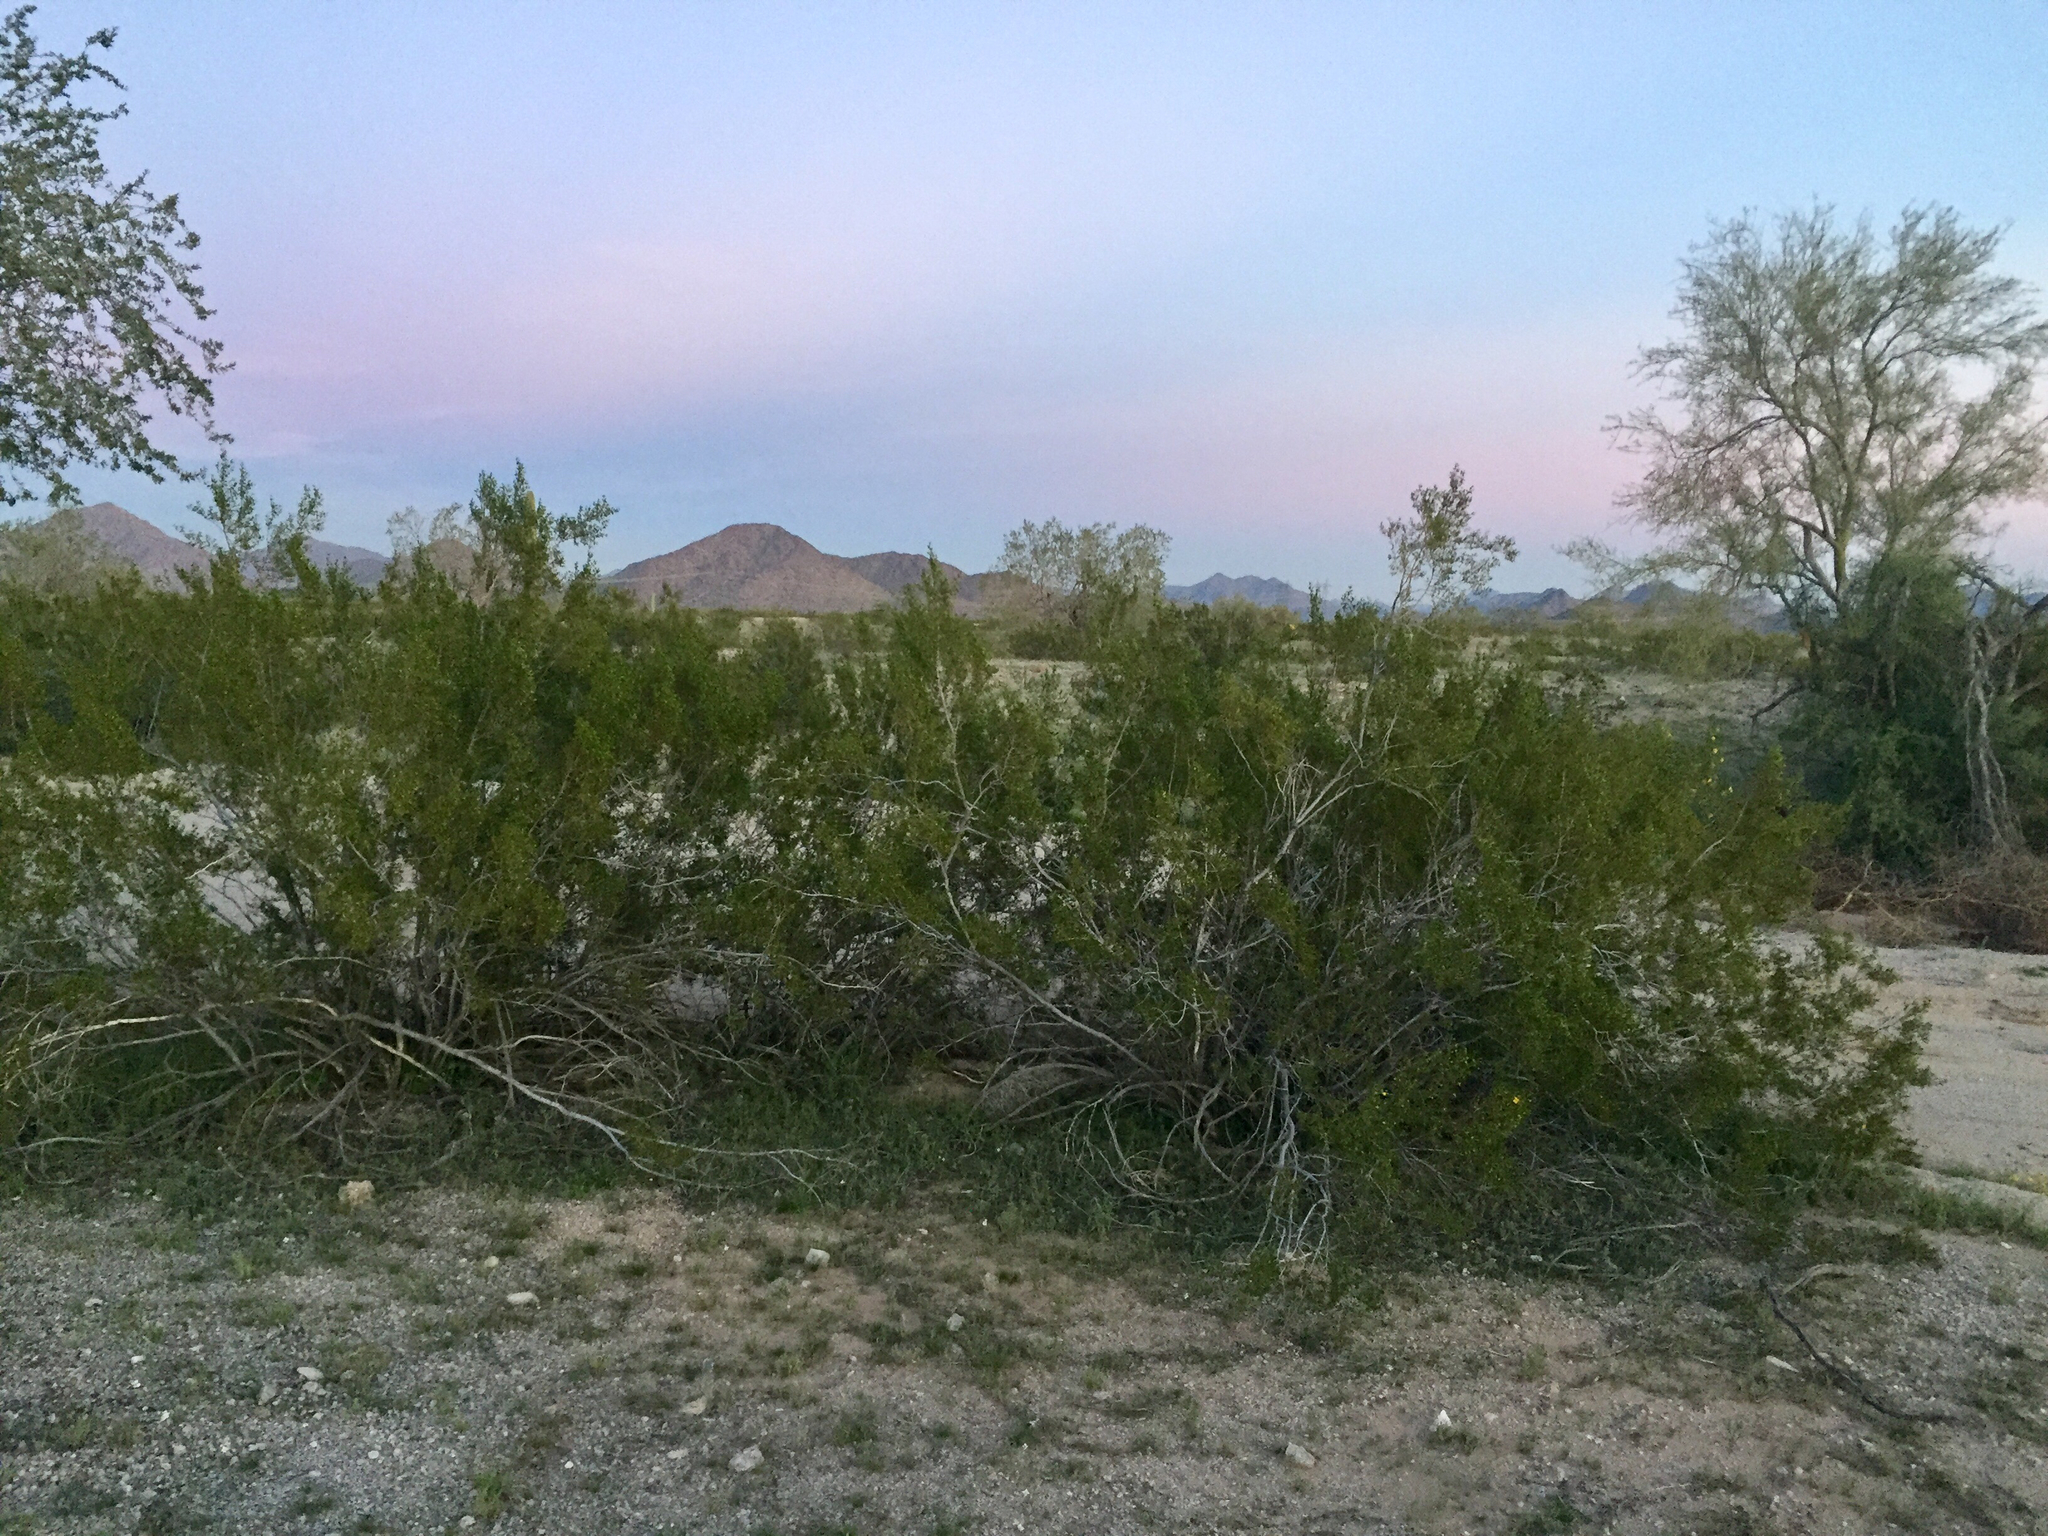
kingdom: Plantae
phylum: Tracheophyta
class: Magnoliopsida
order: Zygophyllales
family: Zygophyllaceae
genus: Larrea
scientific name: Larrea tridentata
